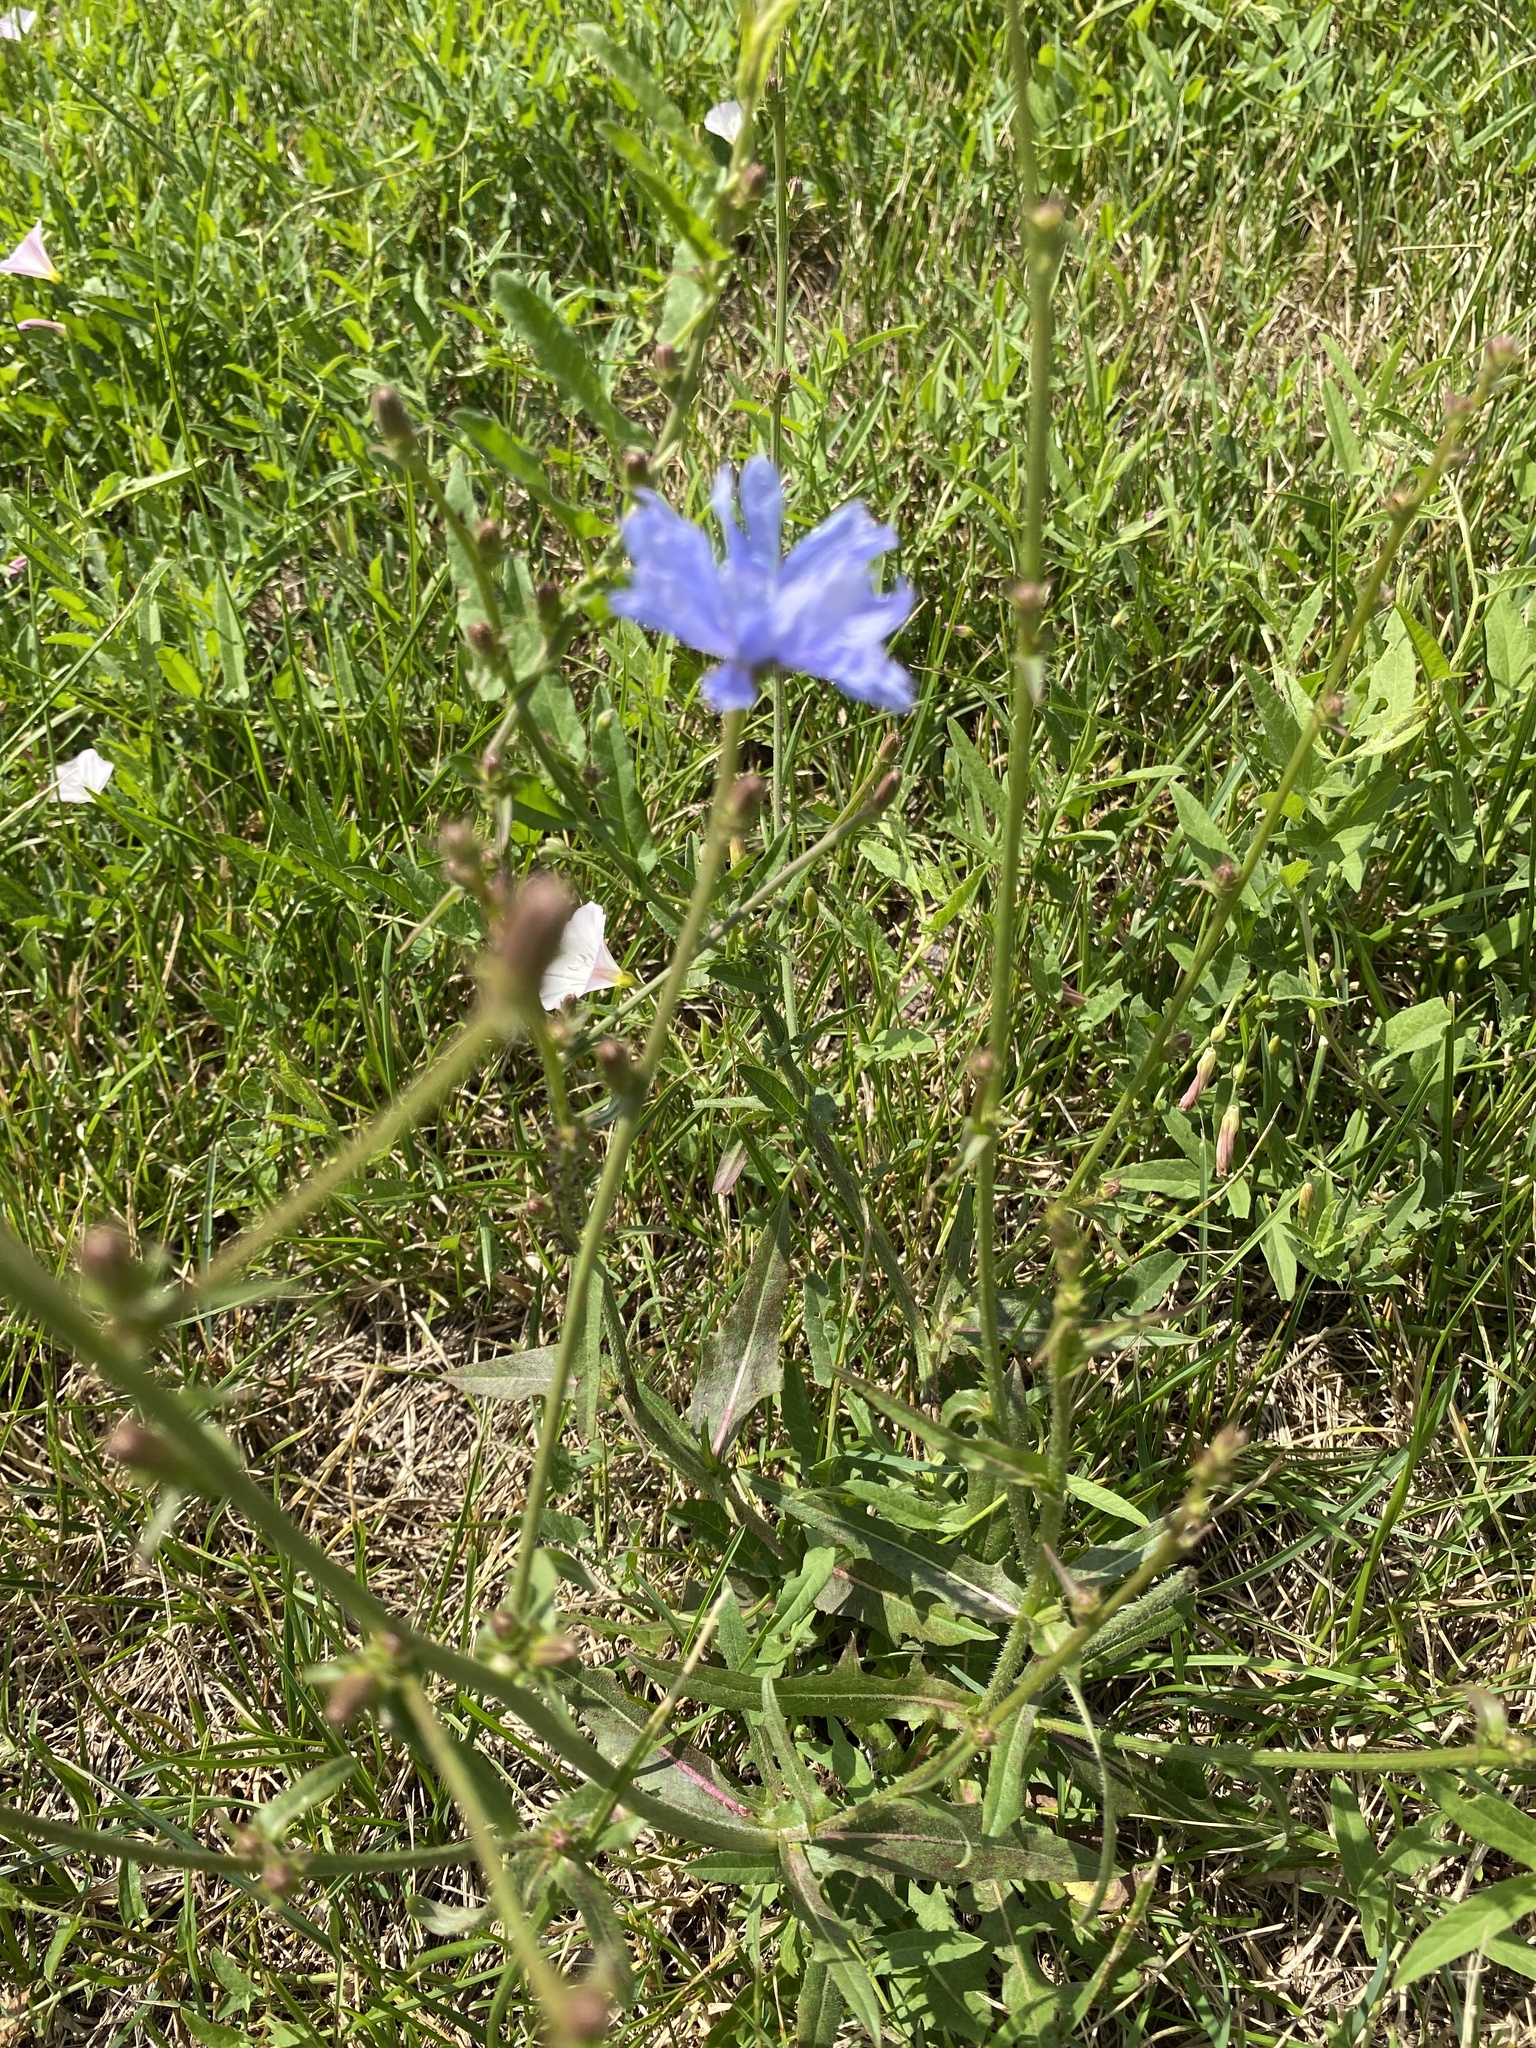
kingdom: Plantae
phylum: Tracheophyta
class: Magnoliopsida
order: Asterales
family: Asteraceae
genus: Cichorium
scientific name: Cichorium intybus
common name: Chicory
